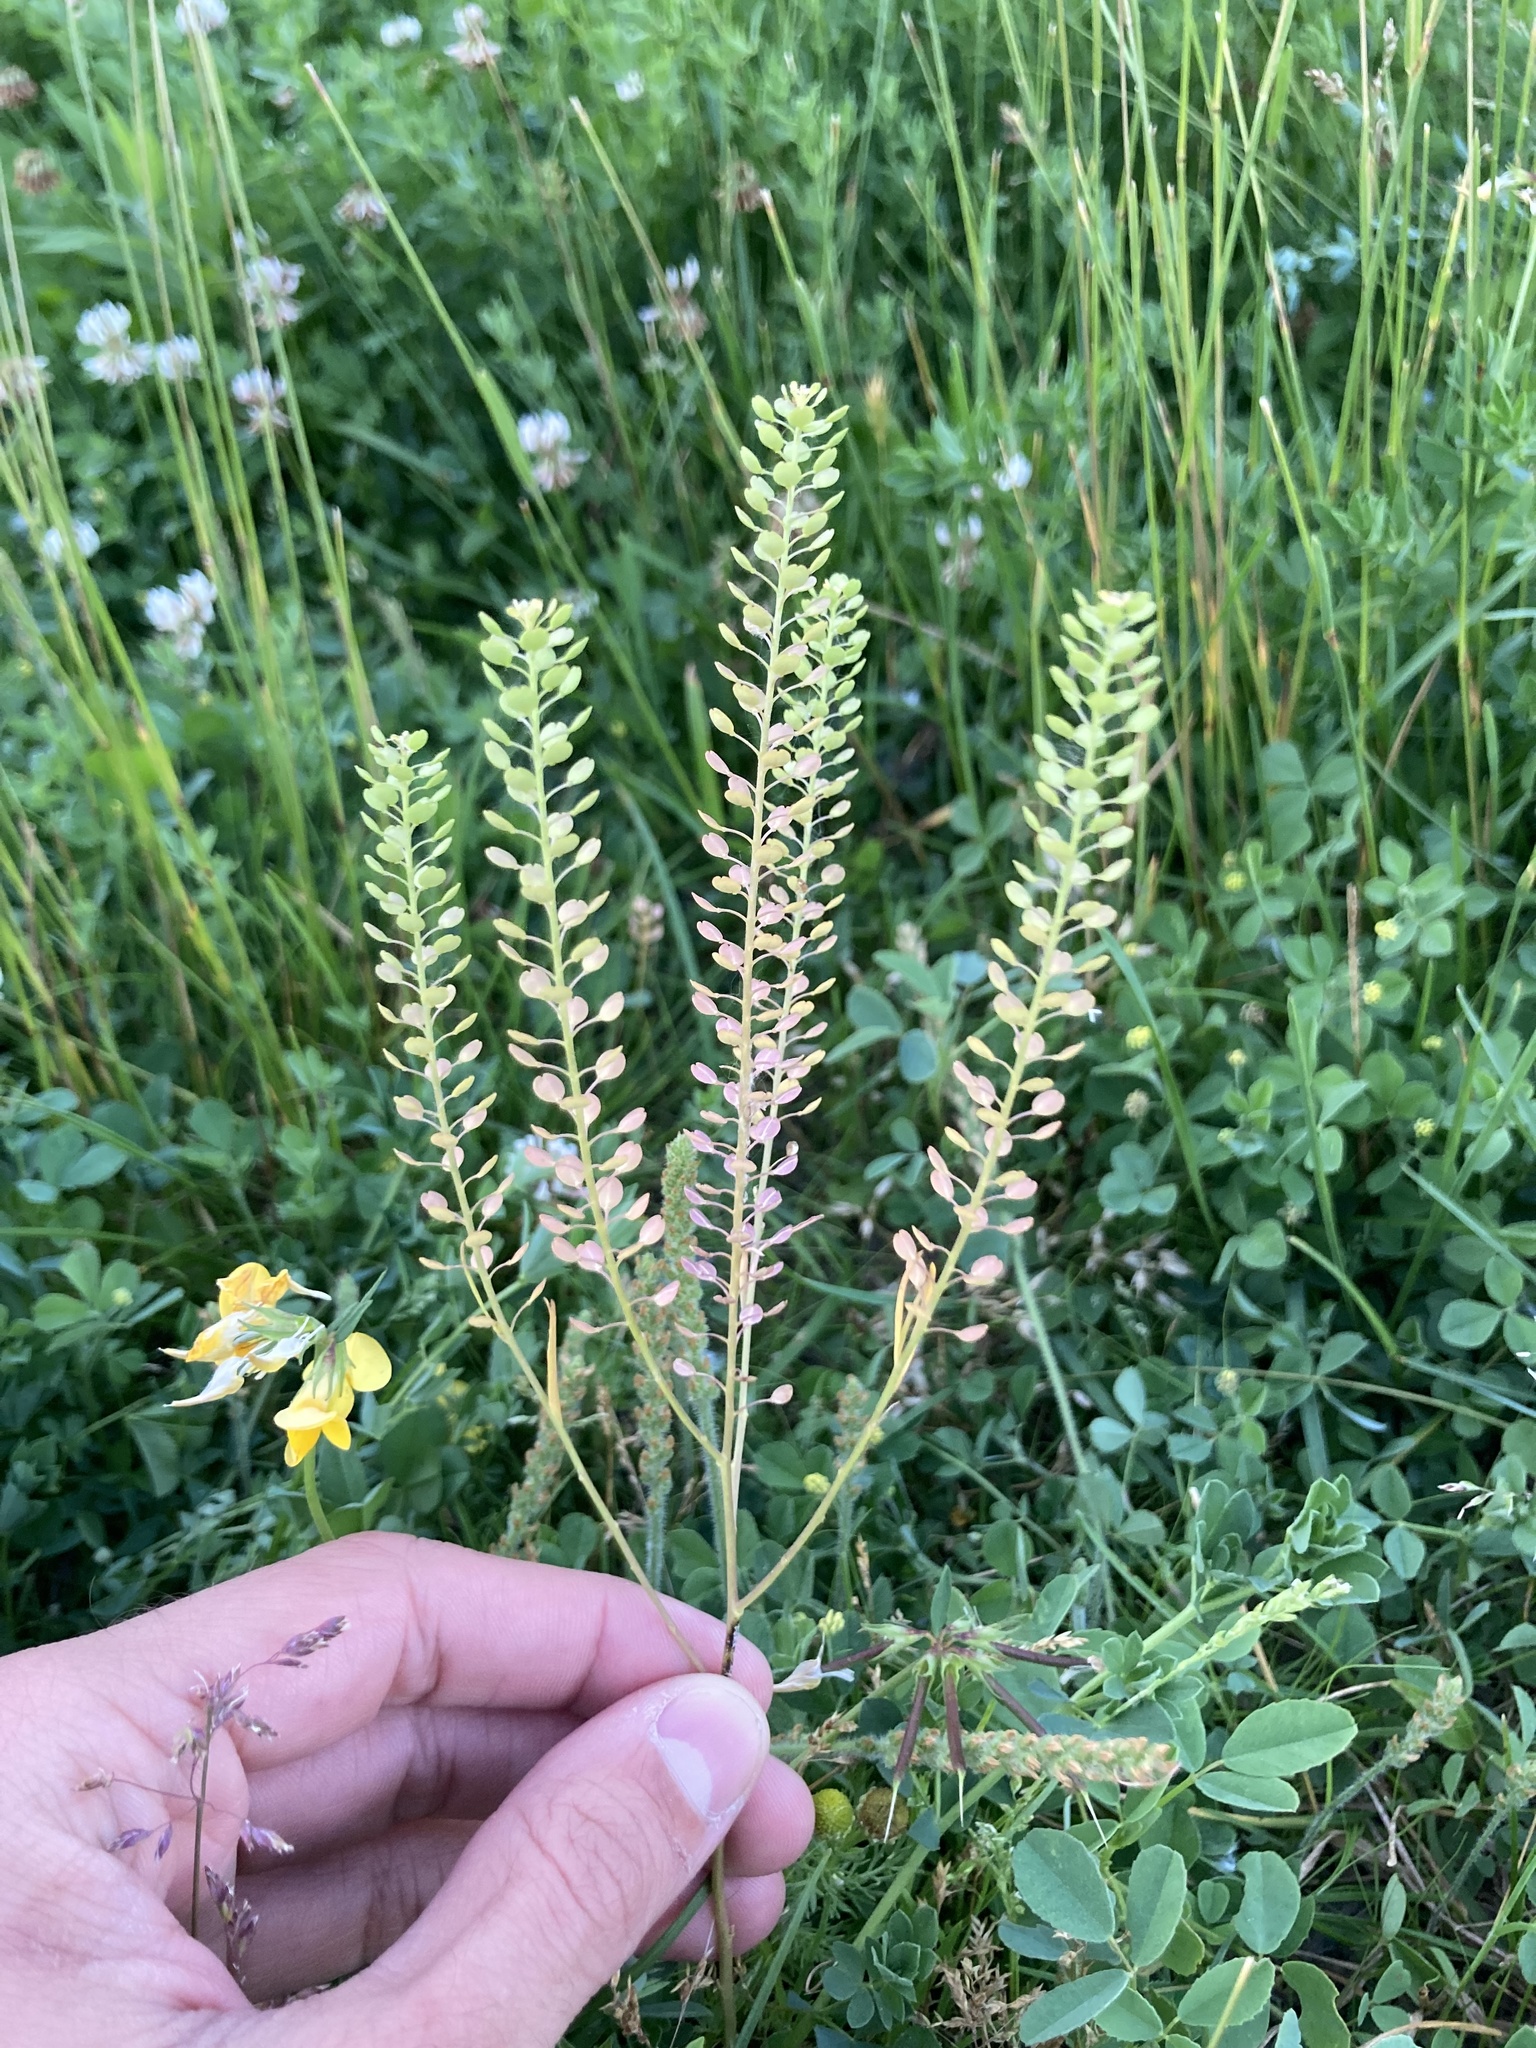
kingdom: Plantae
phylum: Tracheophyta
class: Magnoliopsida
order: Brassicales
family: Brassicaceae
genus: Lepidium
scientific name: Lepidium densiflorum
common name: Miner's pepperwort
